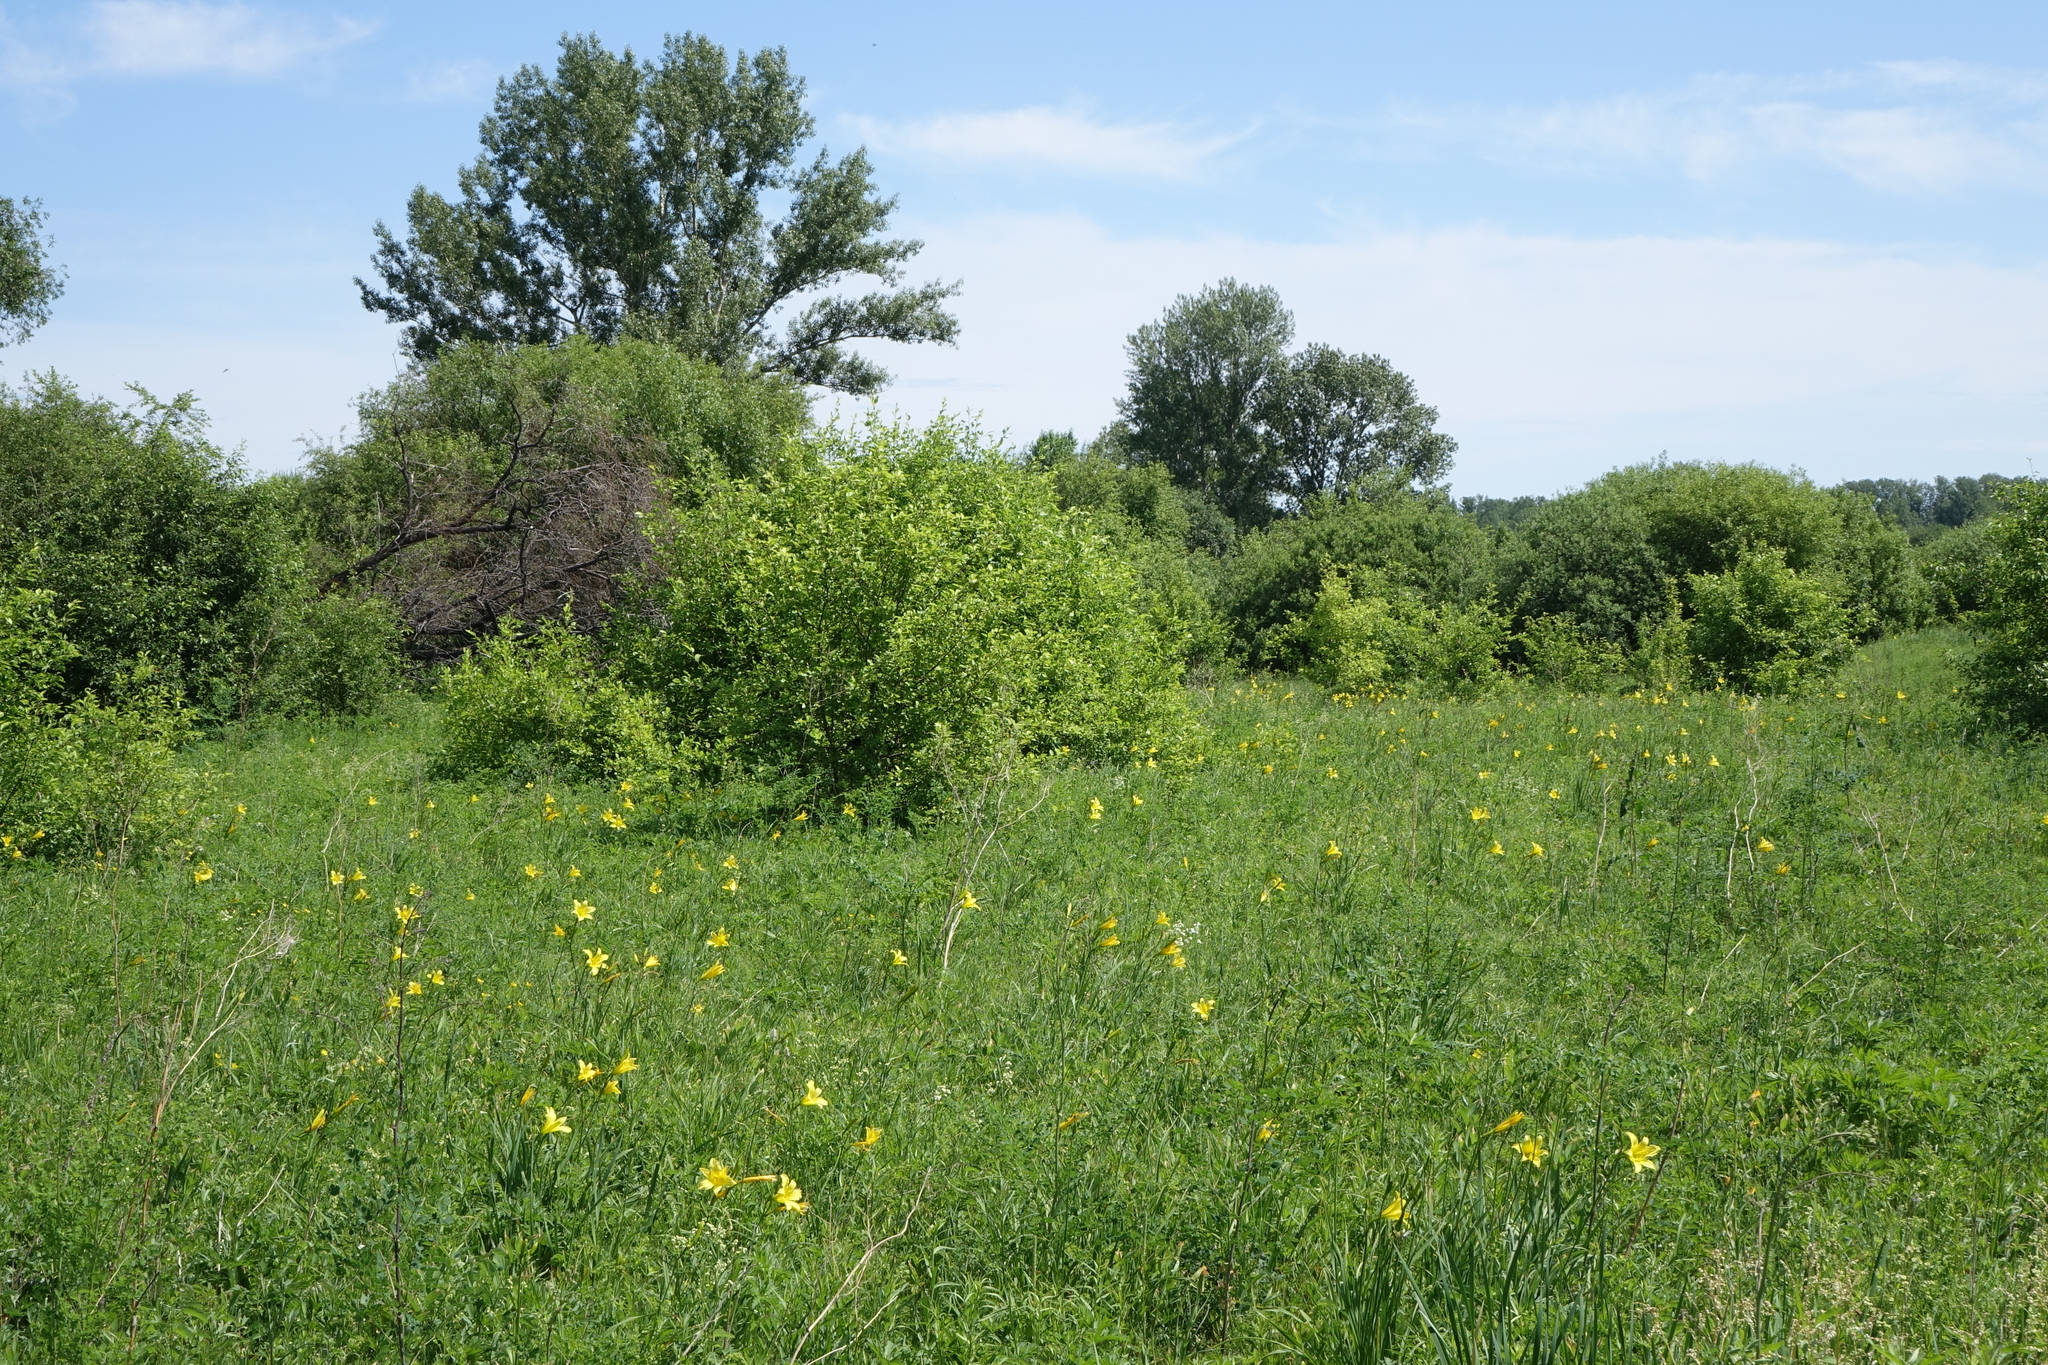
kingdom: Plantae
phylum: Tracheophyta
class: Liliopsida
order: Asparagales
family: Asphodelaceae
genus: Hemerocallis
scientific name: Hemerocallis minor
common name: Small daylily
